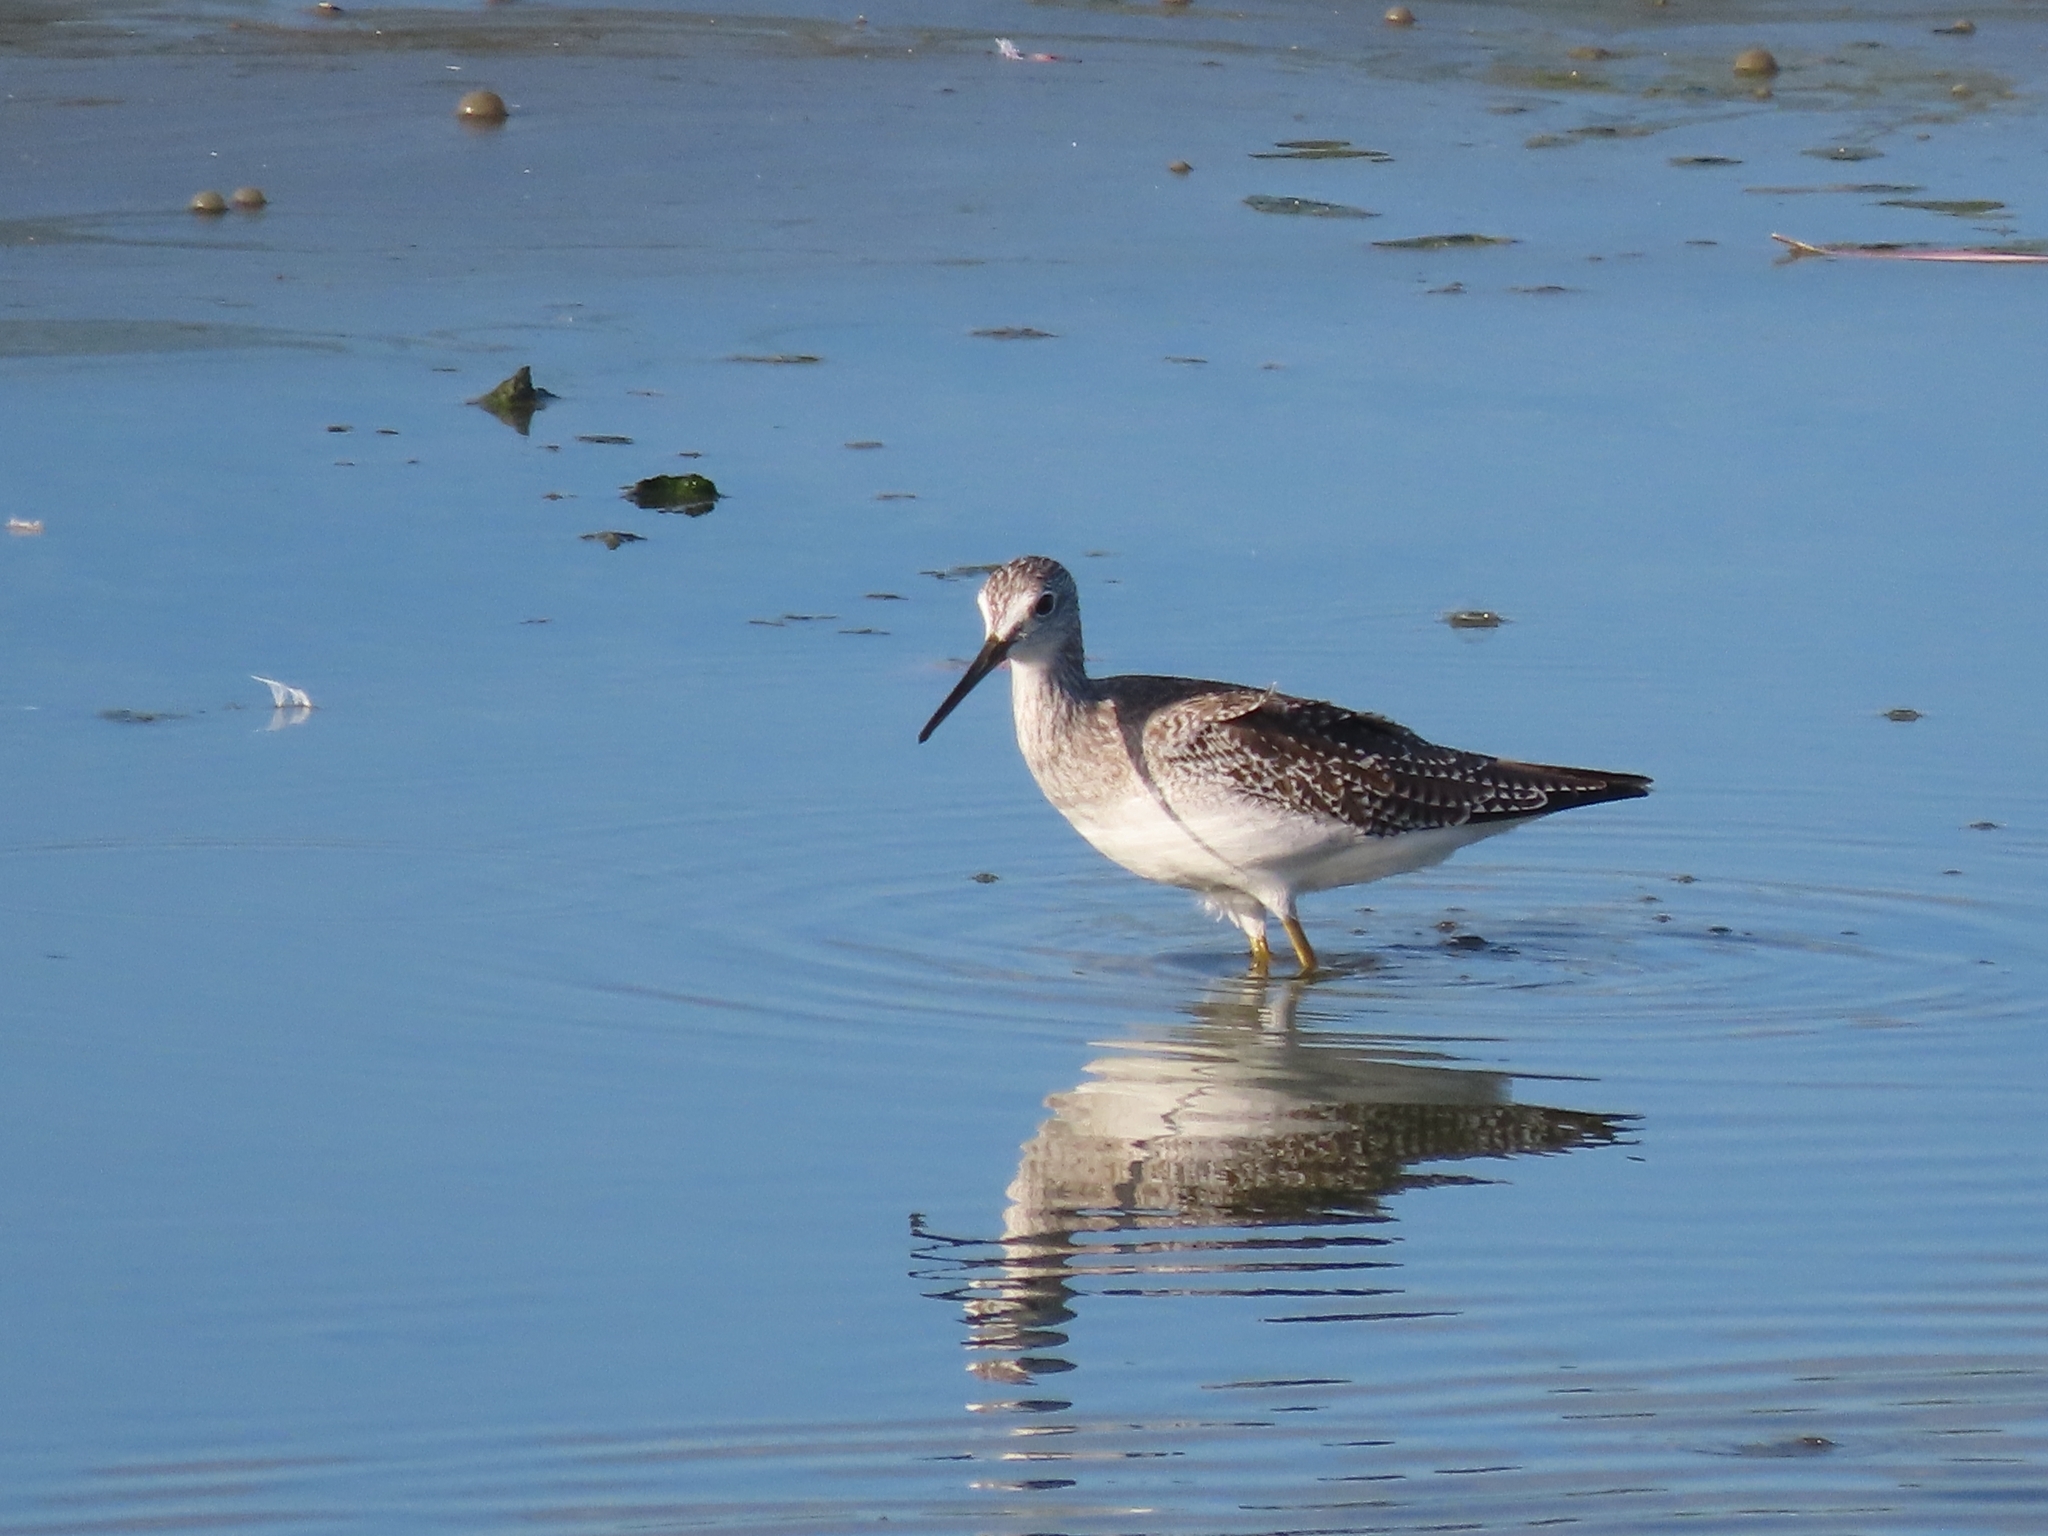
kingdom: Animalia
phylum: Chordata
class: Aves
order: Charadriiformes
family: Scolopacidae
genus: Tringa
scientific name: Tringa melanoleuca
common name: Greater yellowlegs
